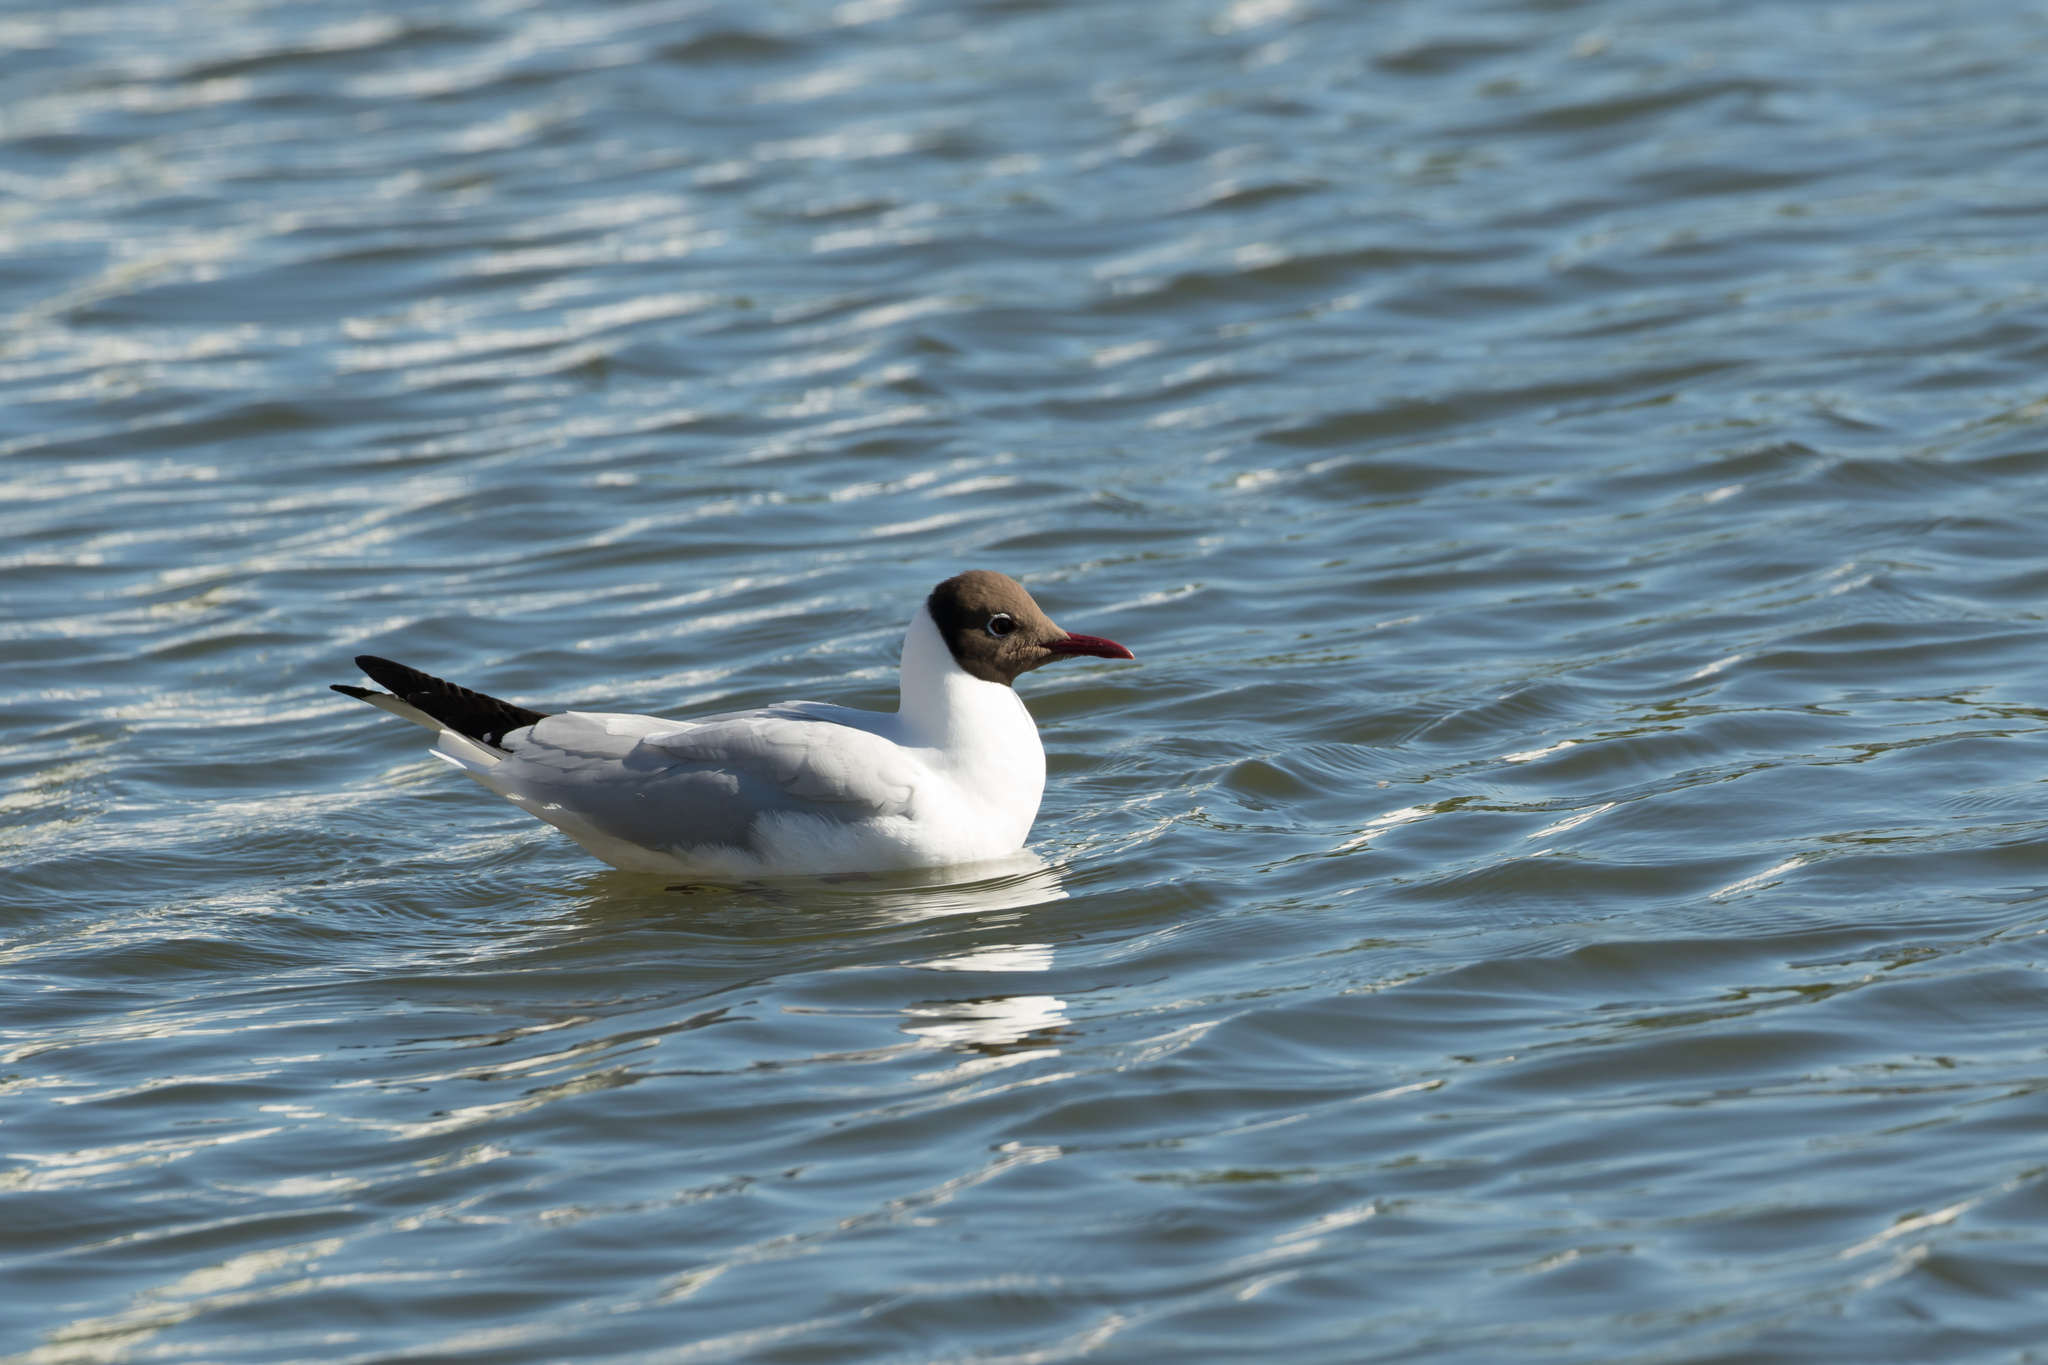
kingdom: Animalia
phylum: Chordata
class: Aves
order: Charadriiformes
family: Laridae
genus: Chroicocephalus
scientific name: Chroicocephalus ridibundus
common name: Black-headed gull
